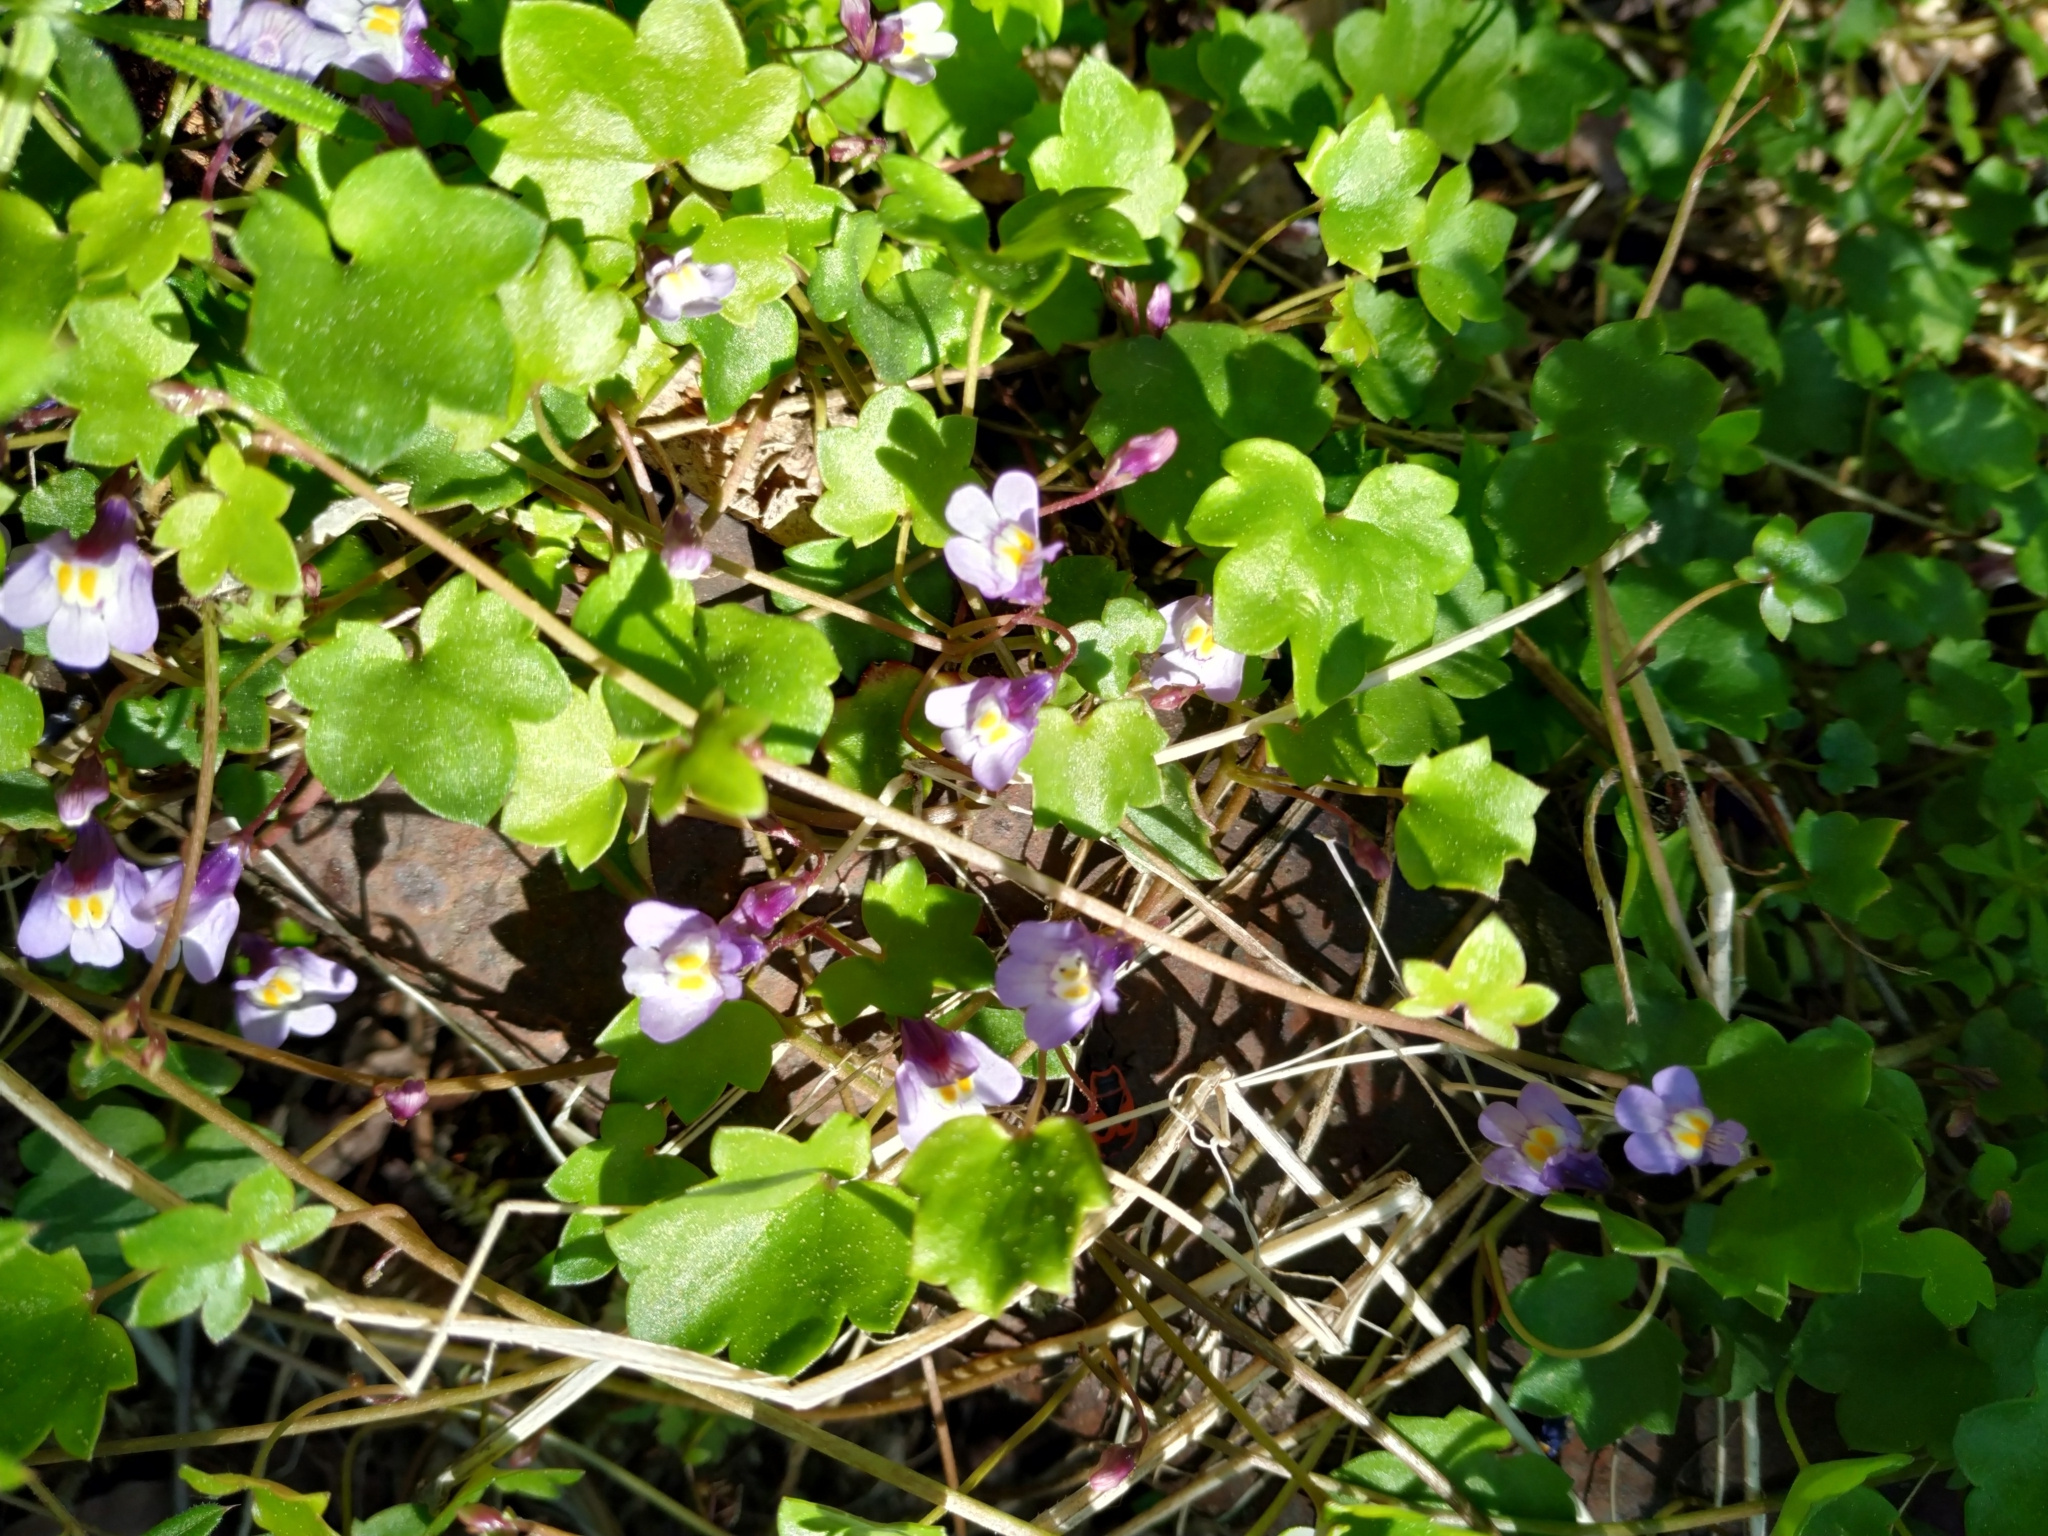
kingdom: Plantae
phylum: Tracheophyta
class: Magnoliopsida
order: Lamiales
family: Plantaginaceae
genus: Cymbalaria
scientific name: Cymbalaria muralis
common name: Ivy-leaved toadflax
